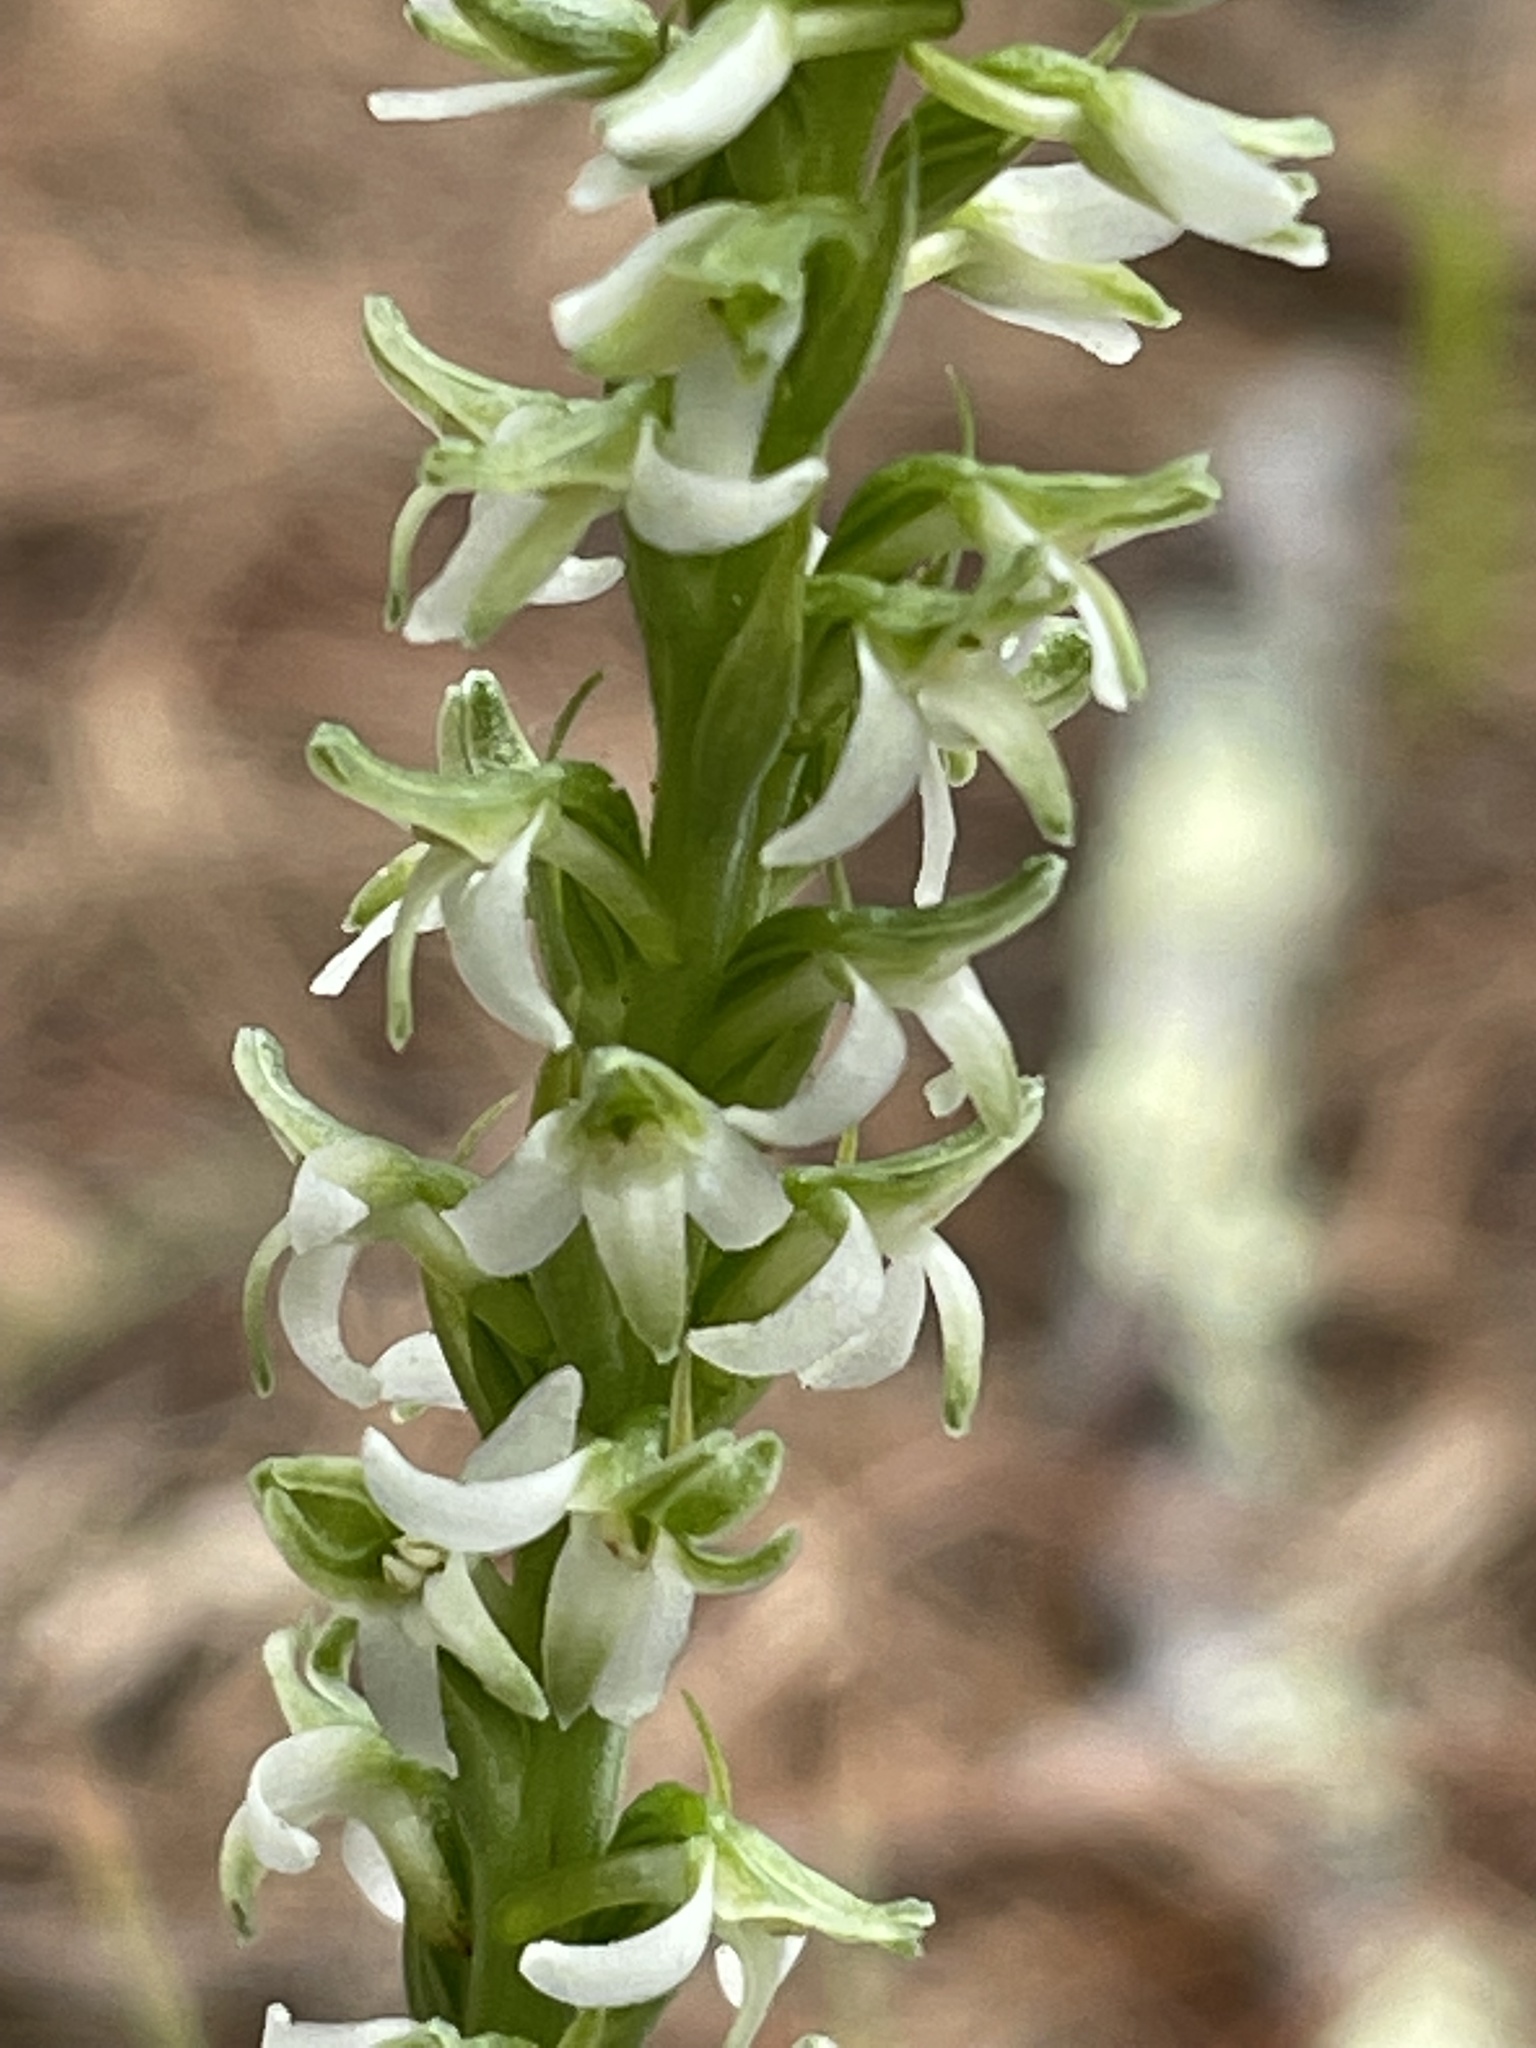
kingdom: Plantae
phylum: Tracheophyta
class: Liliopsida
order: Asparagales
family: Orchidaceae
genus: Platanthera
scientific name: Platanthera yadonii
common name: Yadon’s piperia
